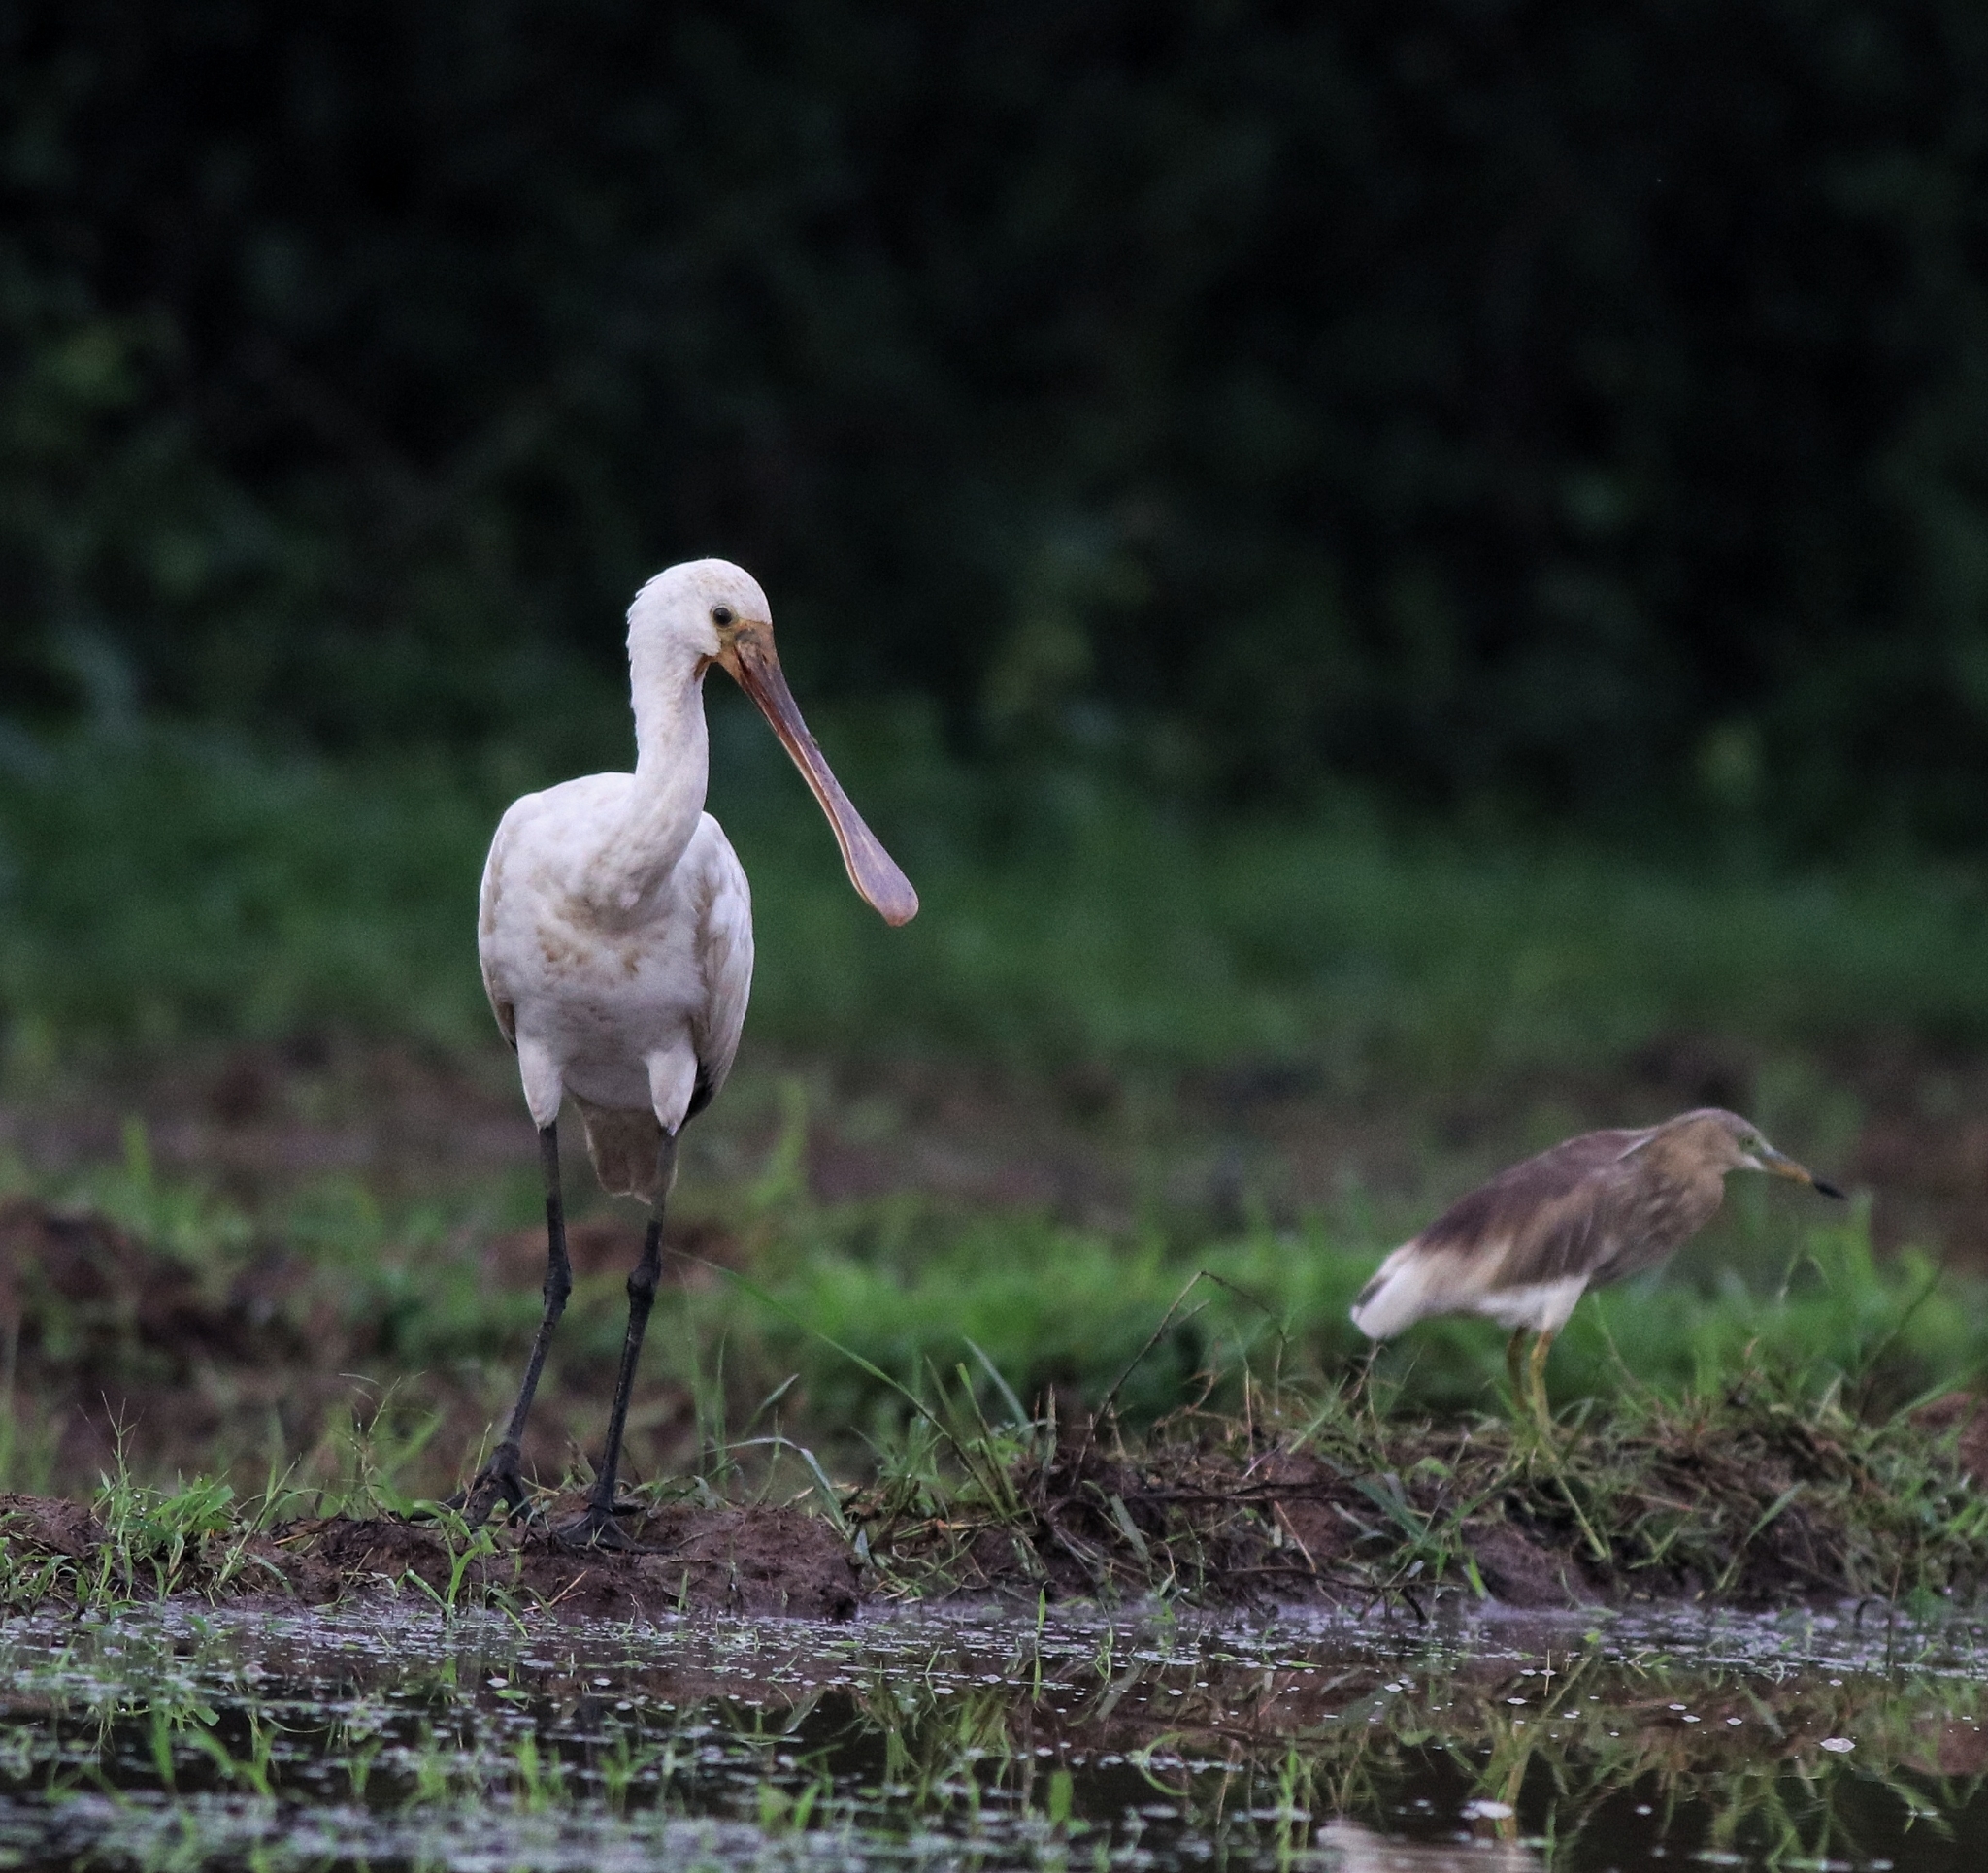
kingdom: Animalia
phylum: Chordata
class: Aves
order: Pelecaniformes
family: Ardeidae
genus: Ardeola
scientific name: Ardeola grayii
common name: Indian pond heron
